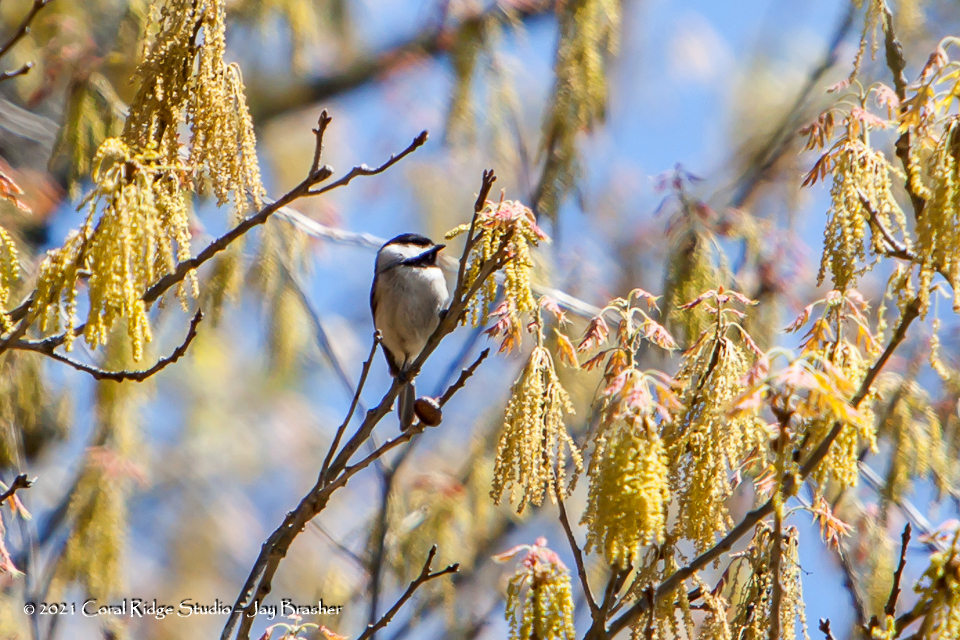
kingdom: Animalia
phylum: Chordata
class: Aves
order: Passeriformes
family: Paridae
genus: Poecile
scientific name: Poecile carolinensis
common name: Carolina chickadee
